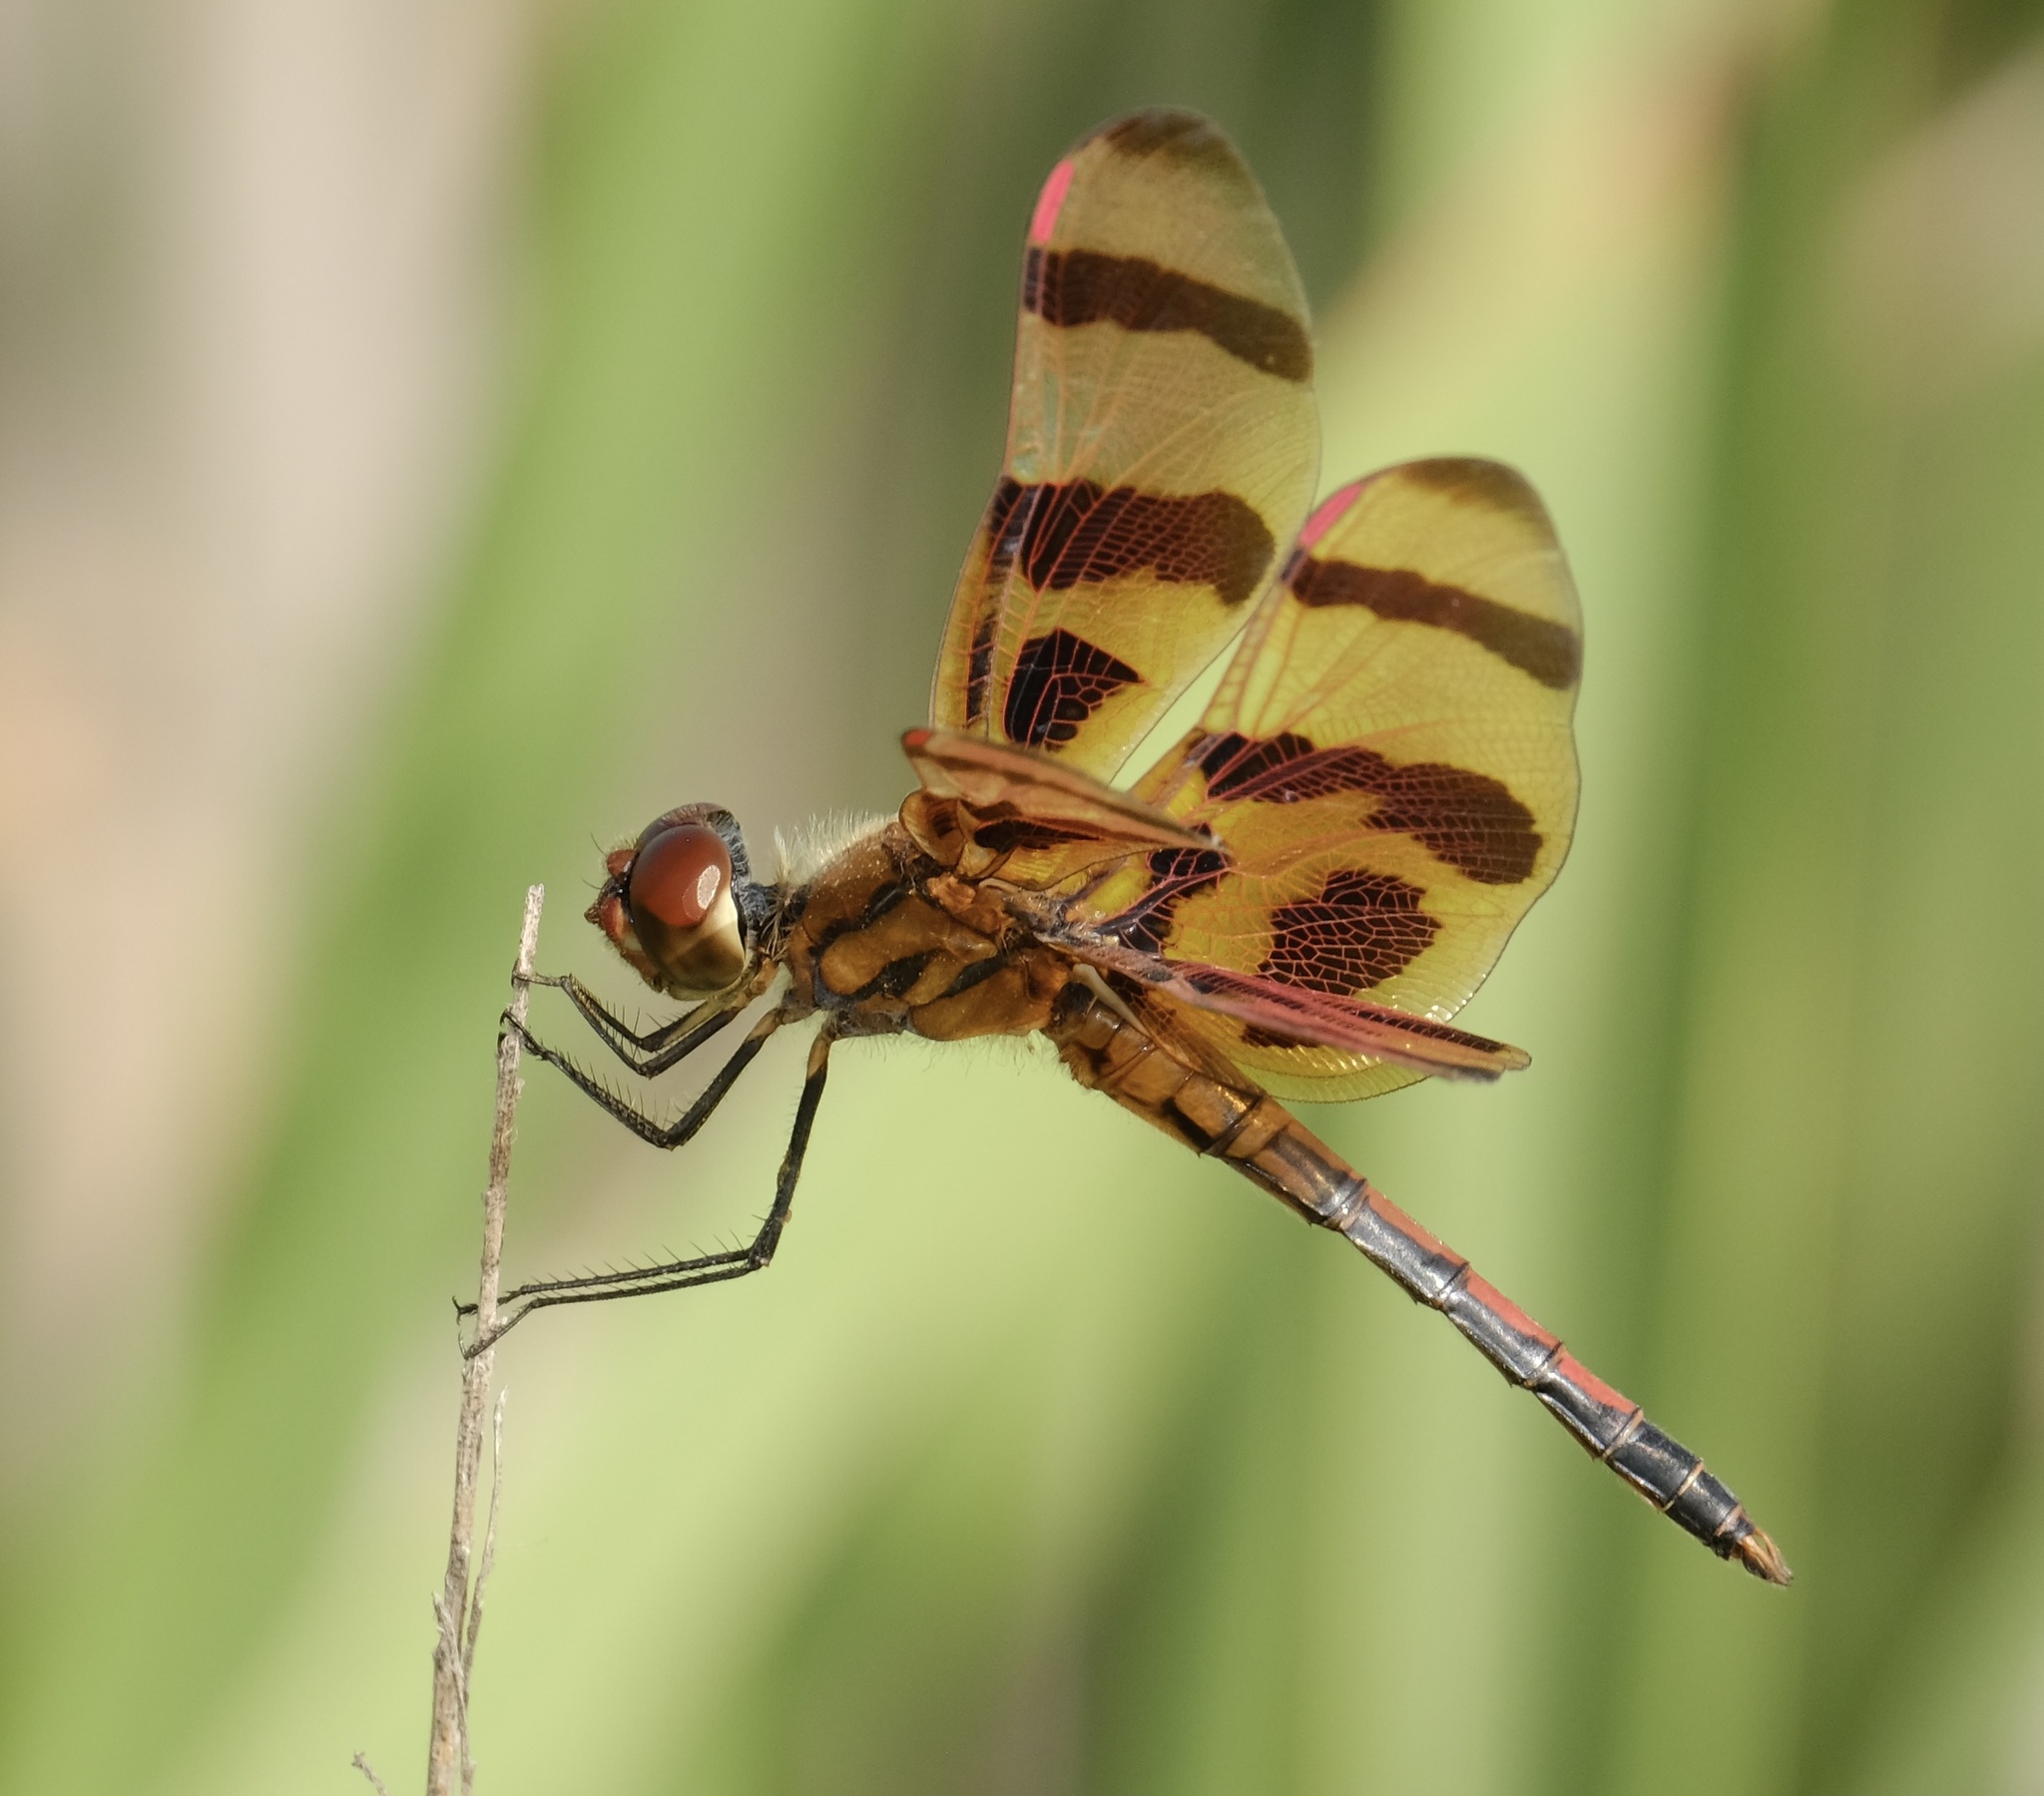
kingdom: Animalia
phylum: Arthropoda
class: Insecta
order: Odonata
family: Libellulidae
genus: Celithemis
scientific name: Celithemis eponina
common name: Halloween pennant
